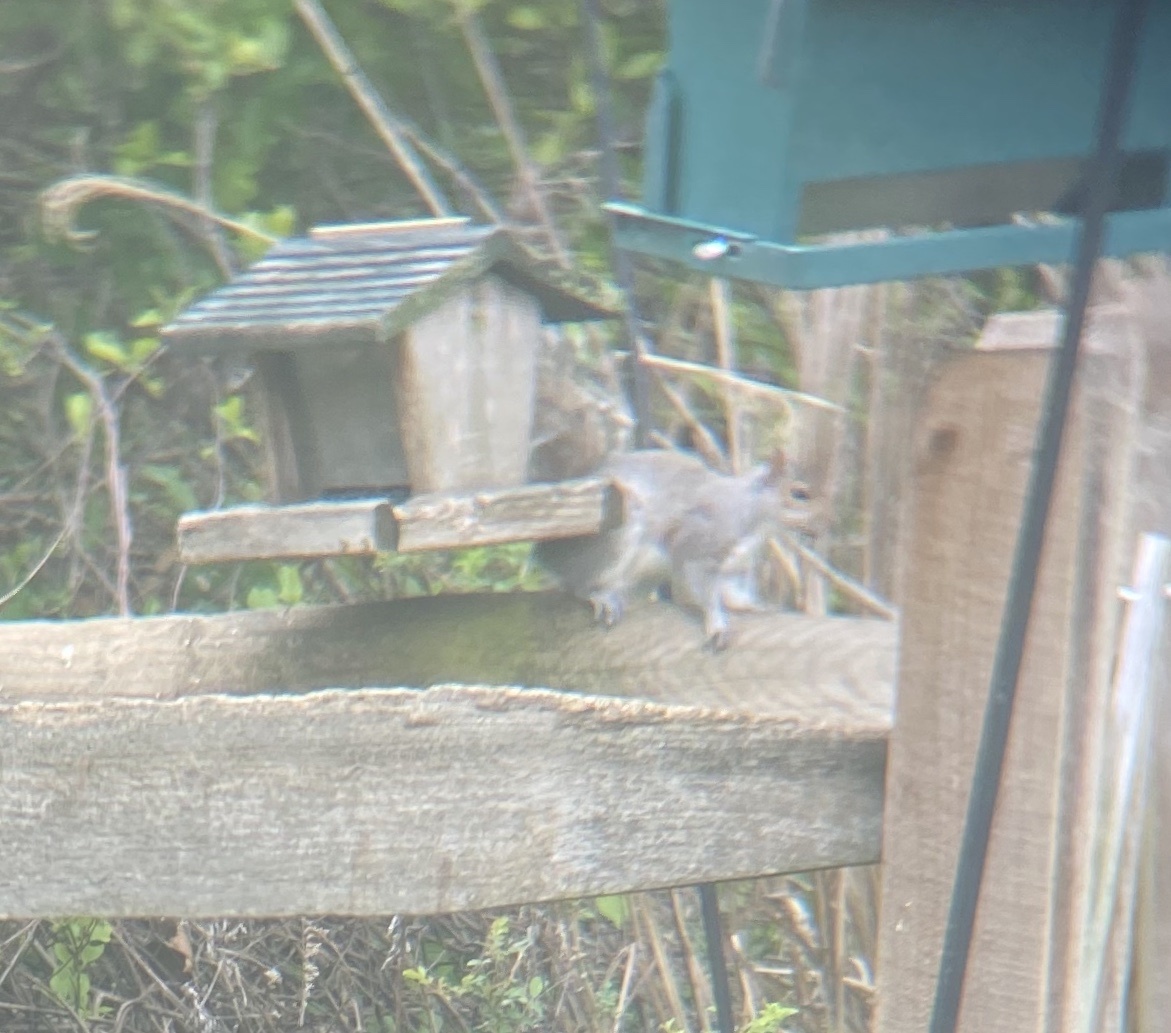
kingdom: Animalia
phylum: Chordata
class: Mammalia
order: Rodentia
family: Sciuridae
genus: Sciurus
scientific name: Sciurus carolinensis
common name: Eastern gray squirrel
